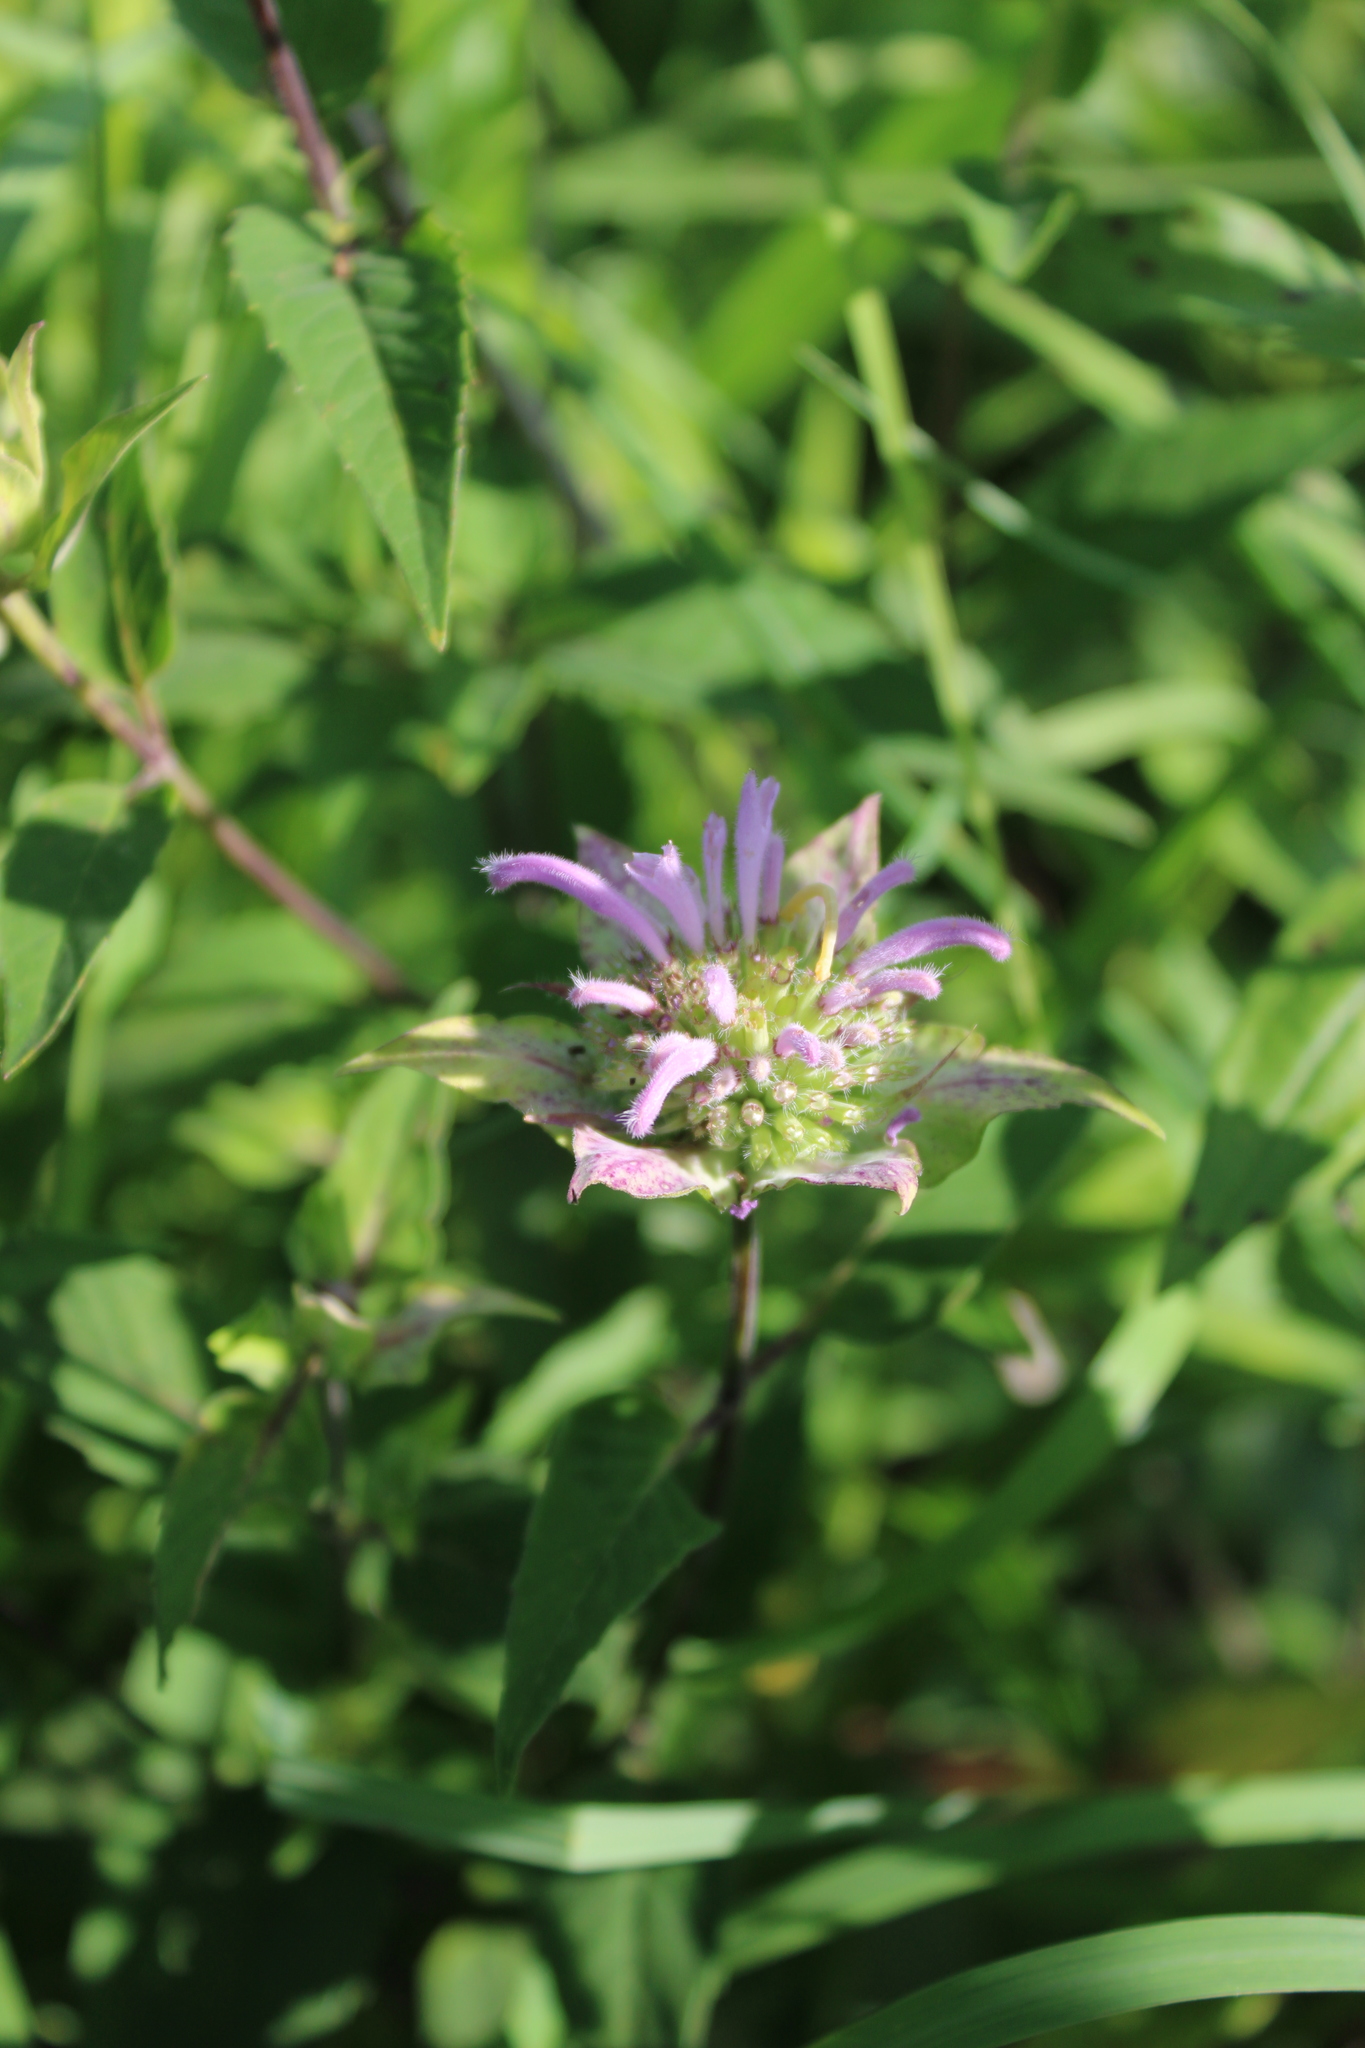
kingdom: Plantae
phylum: Tracheophyta
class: Magnoliopsida
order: Lamiales
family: Lamiaceae
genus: Monarda
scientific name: Monarda fistulosa
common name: Purple beebalm
